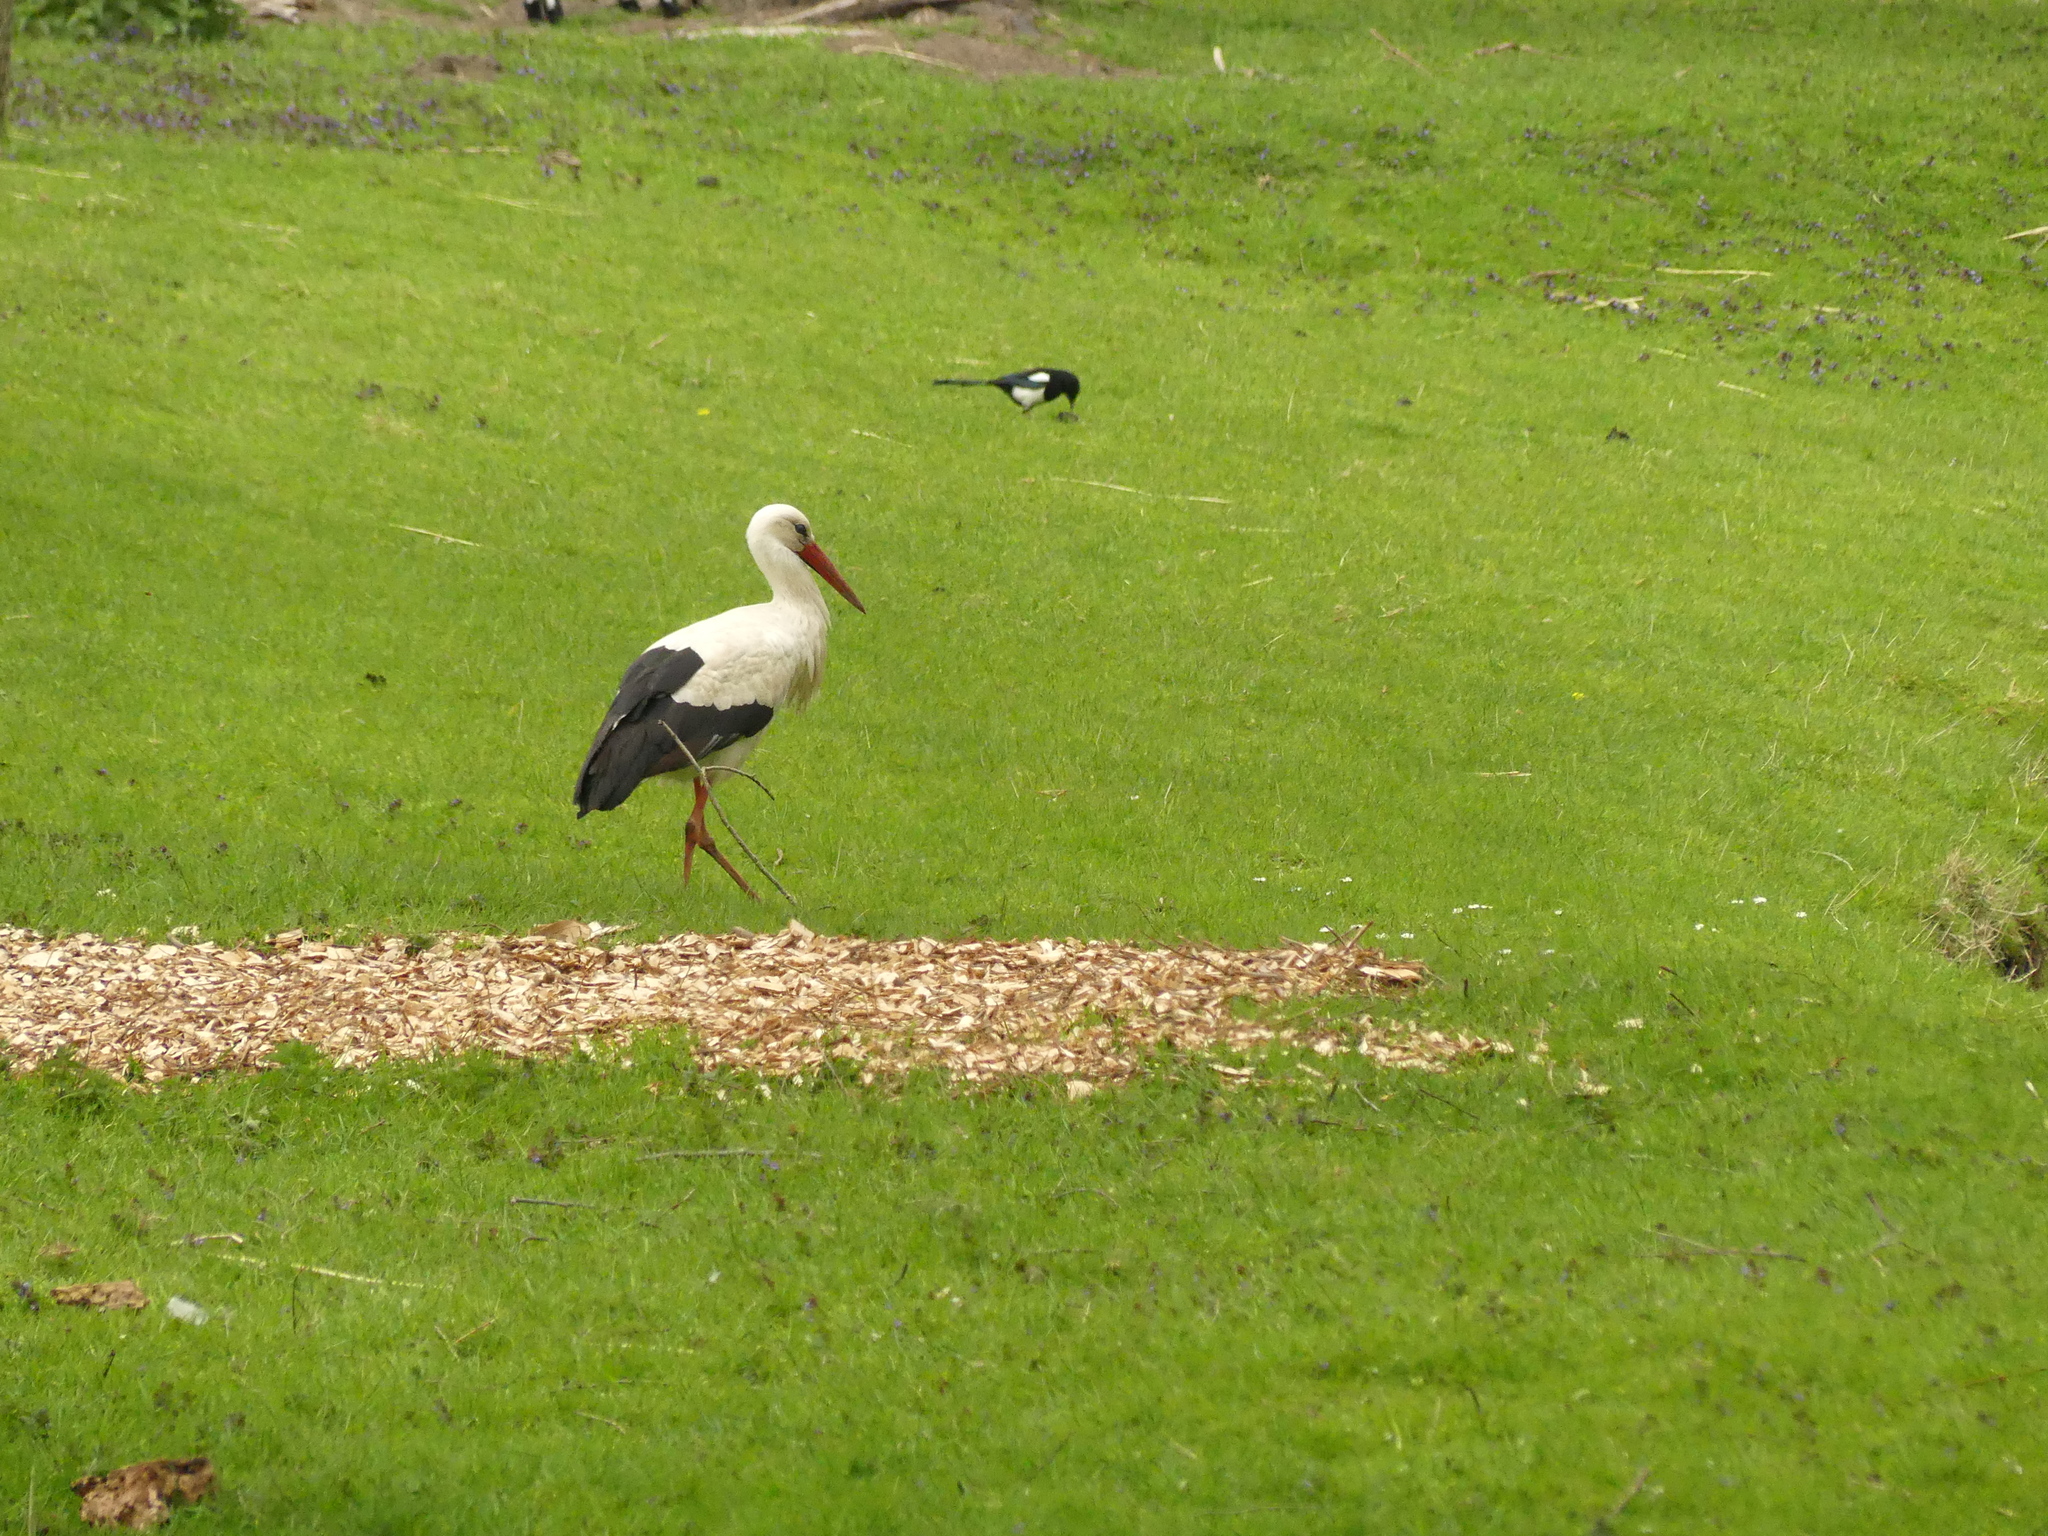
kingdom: Animalia
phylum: Chordata
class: Aves
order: Ciconiiformes
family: Ciconiidae
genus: Ciconia
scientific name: Ciconia ciconia
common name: White stork
